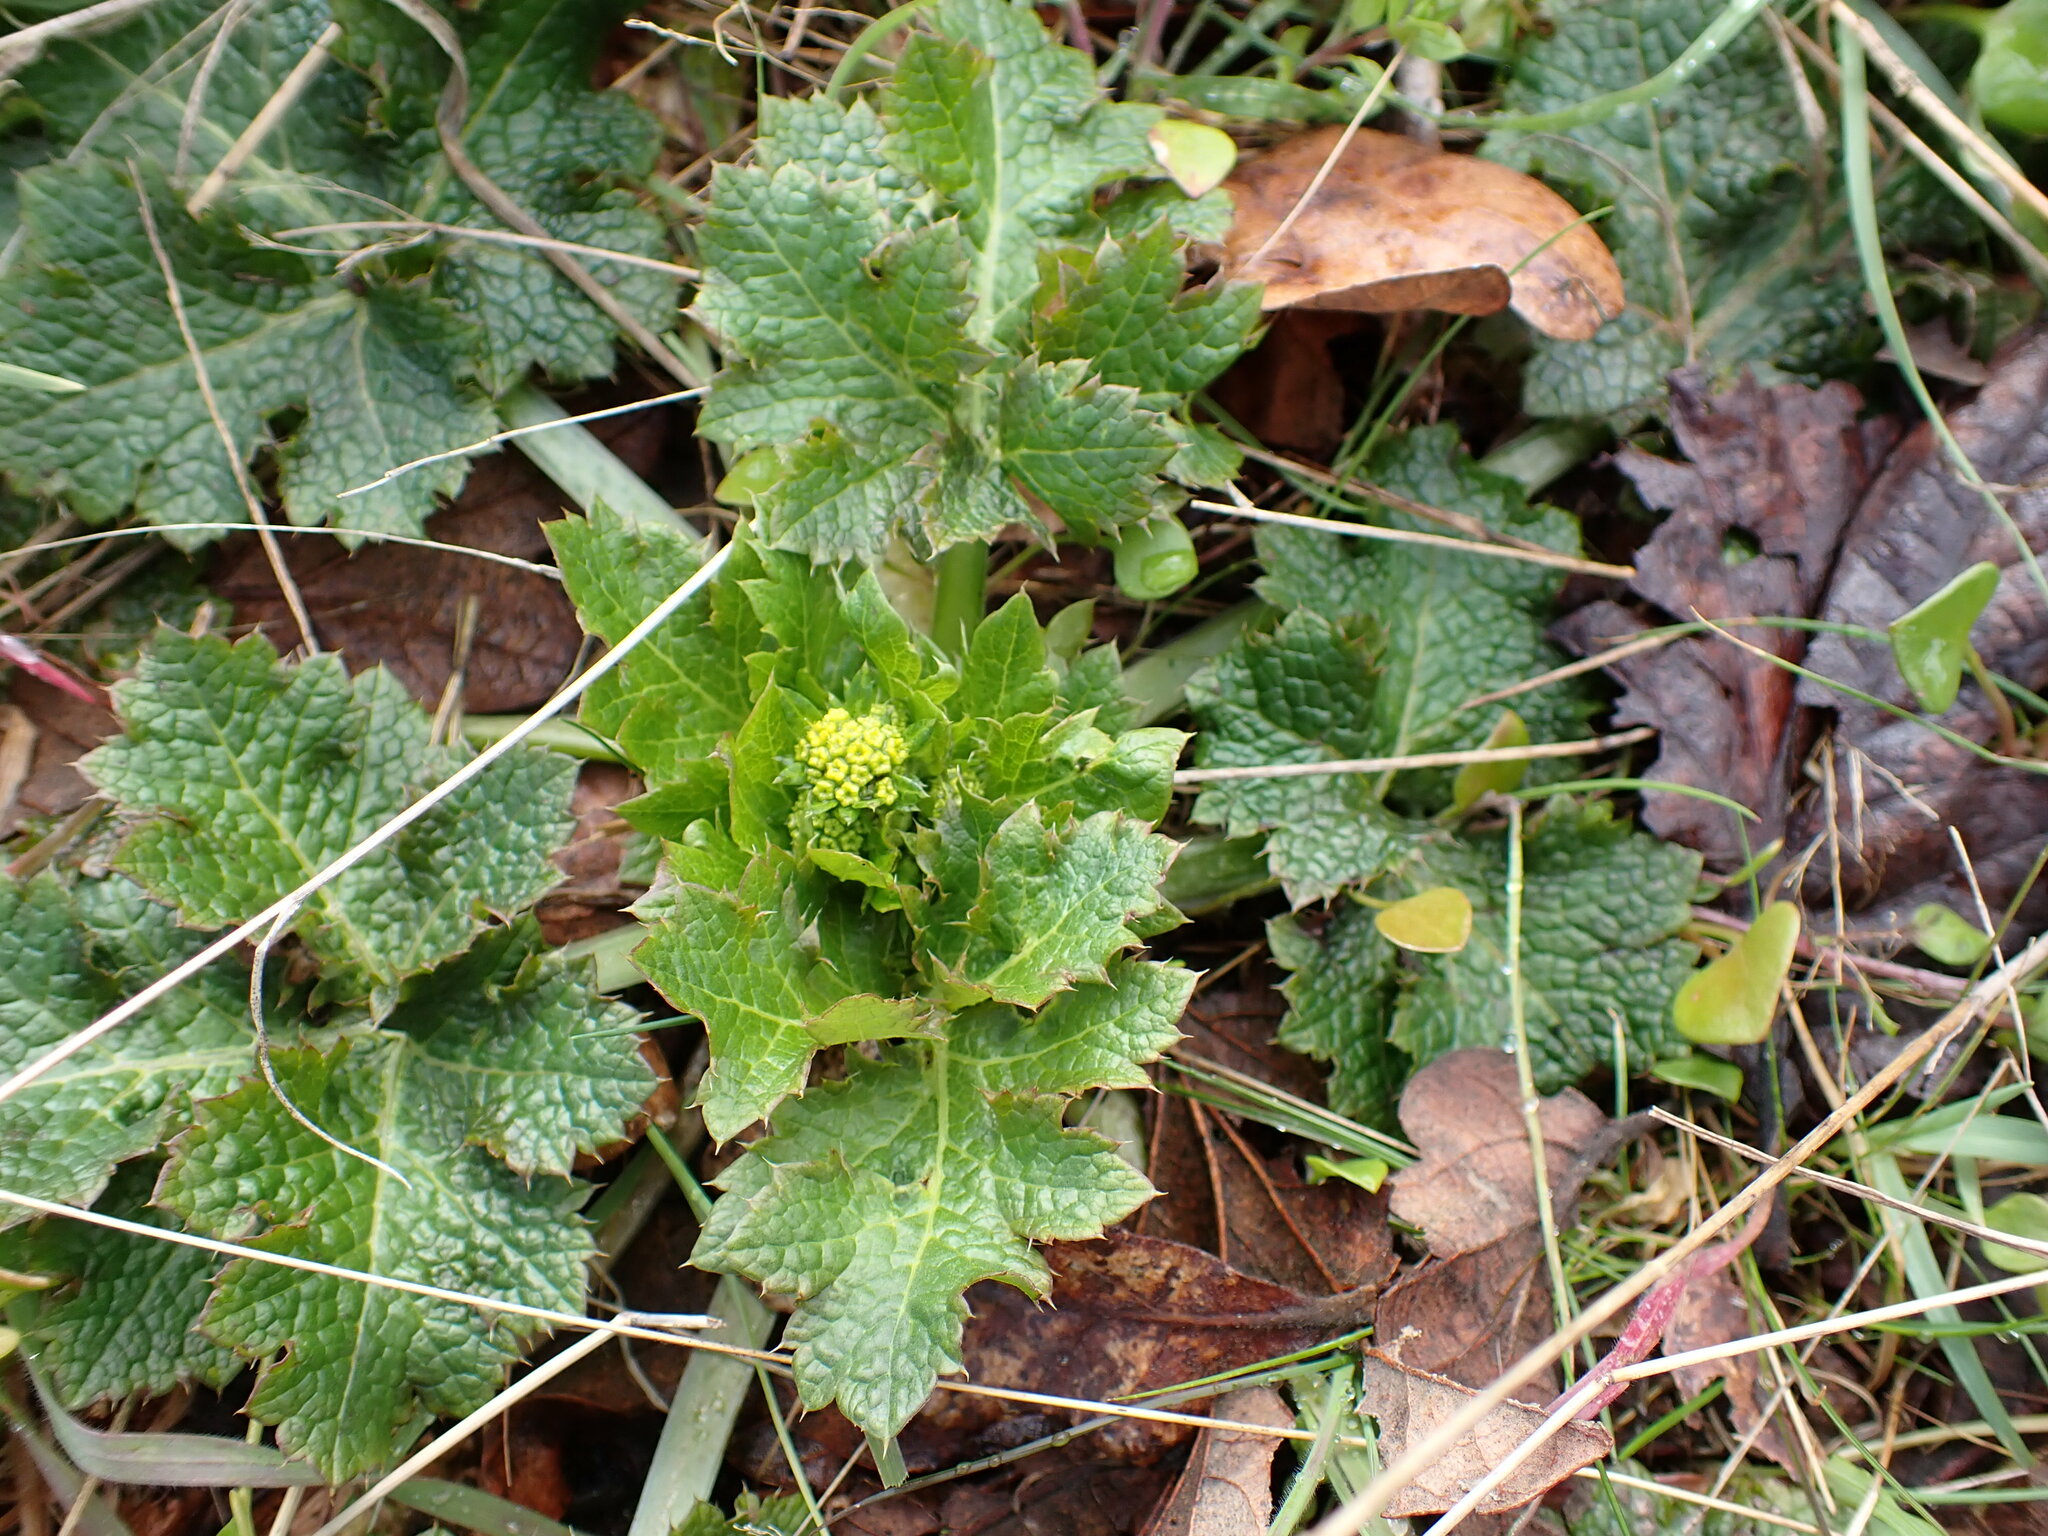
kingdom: Plantae
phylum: Tracheophyta
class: Magnoliopsida
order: Apiales
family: Apiaceae
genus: Sanicula
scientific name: Sanicula crassicaulis
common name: Western snakeroot
